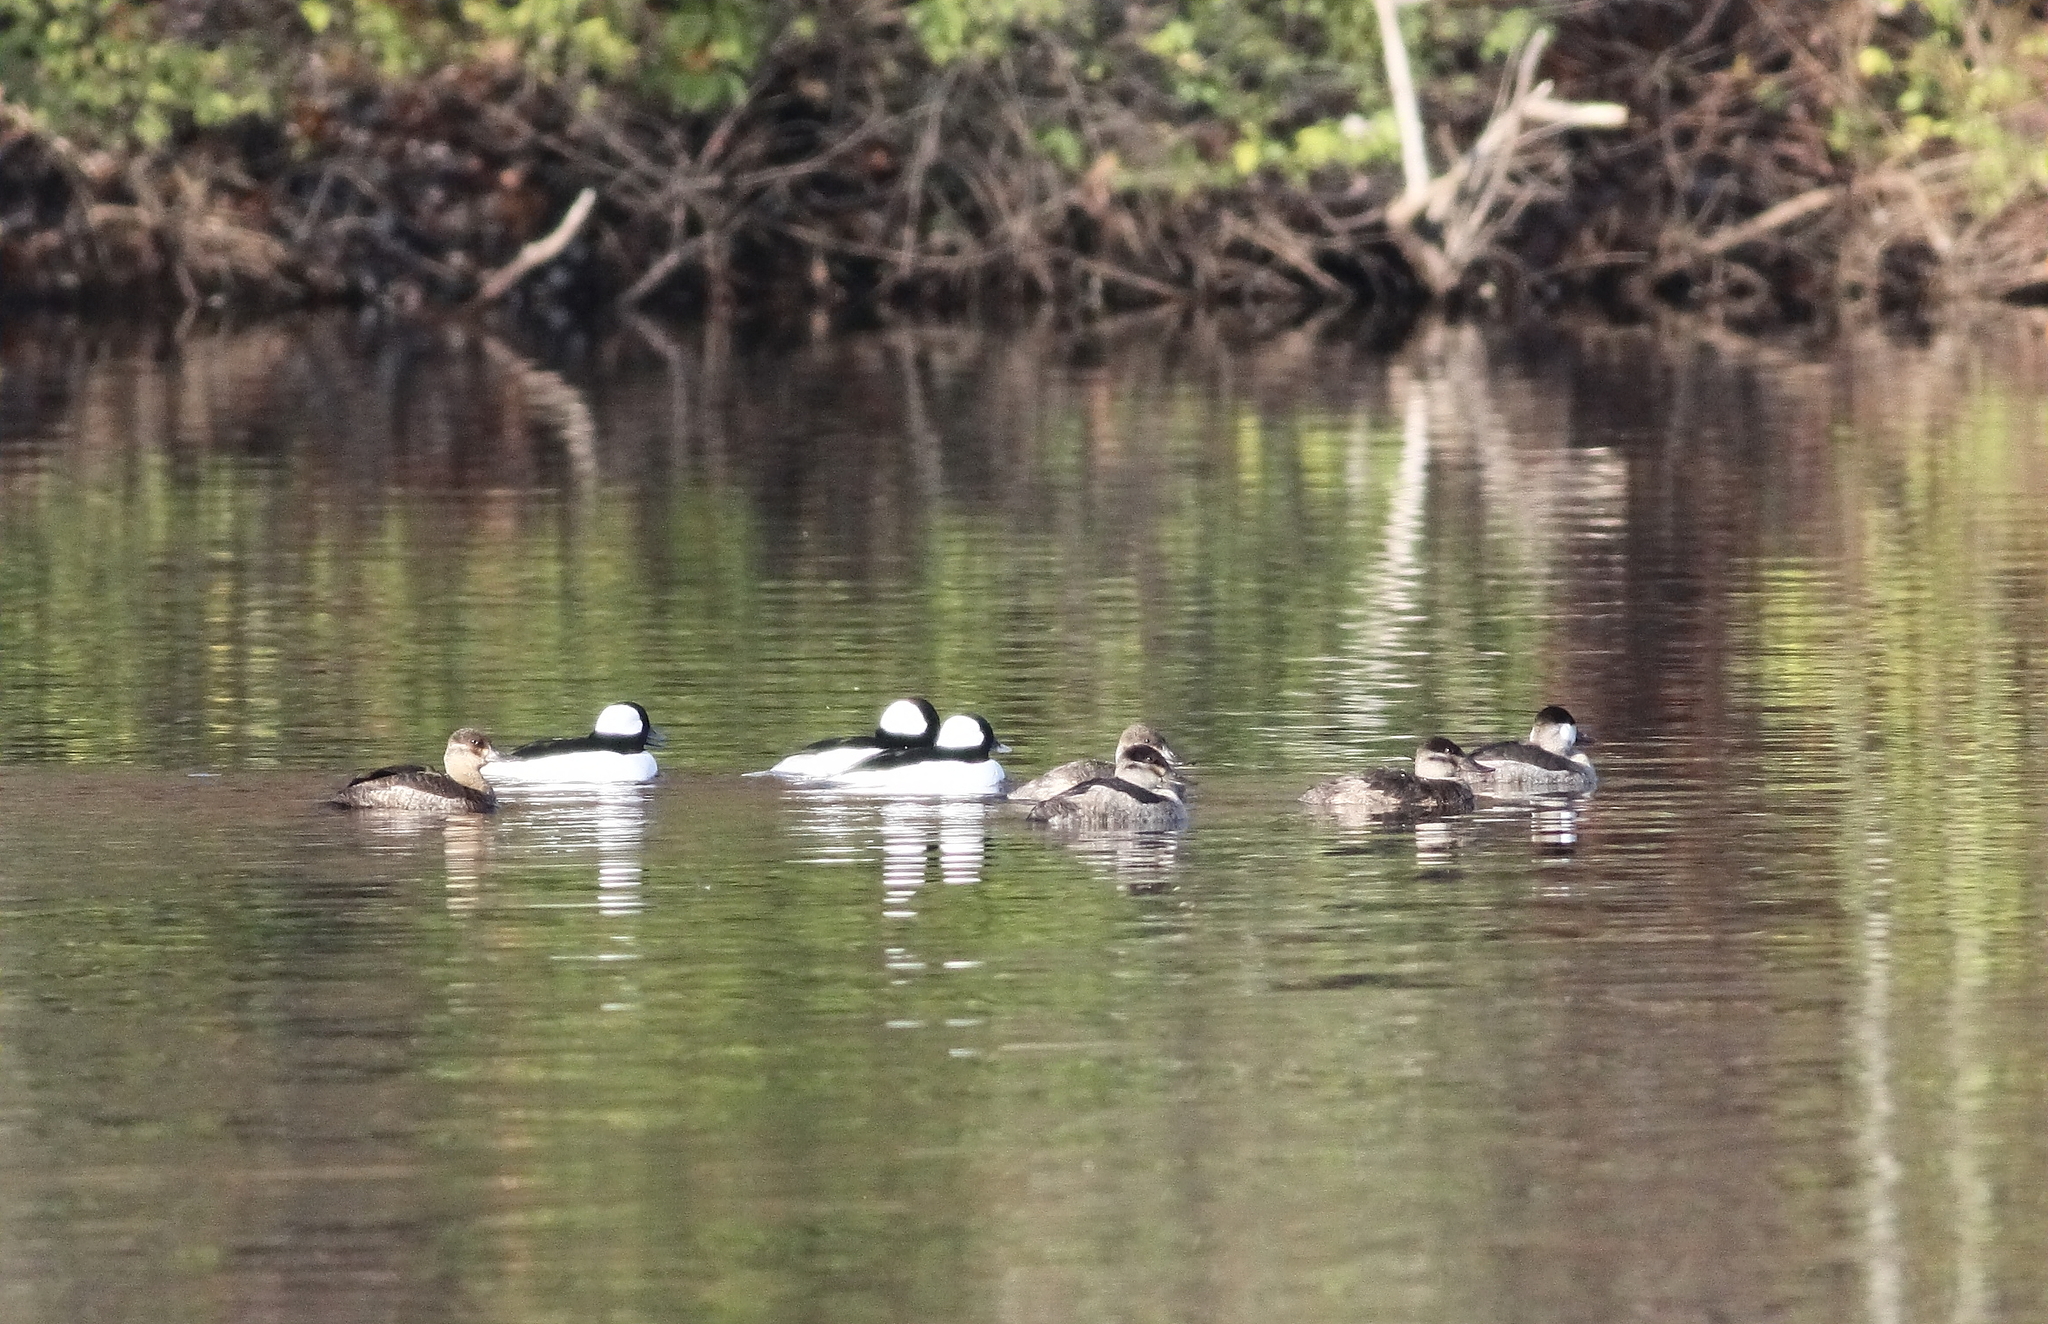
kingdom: Animalia
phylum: Chordata
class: Aves
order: Anseriformes
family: Anatidae
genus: Bucephala
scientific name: Bucephala albeola
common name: Bufflehead
